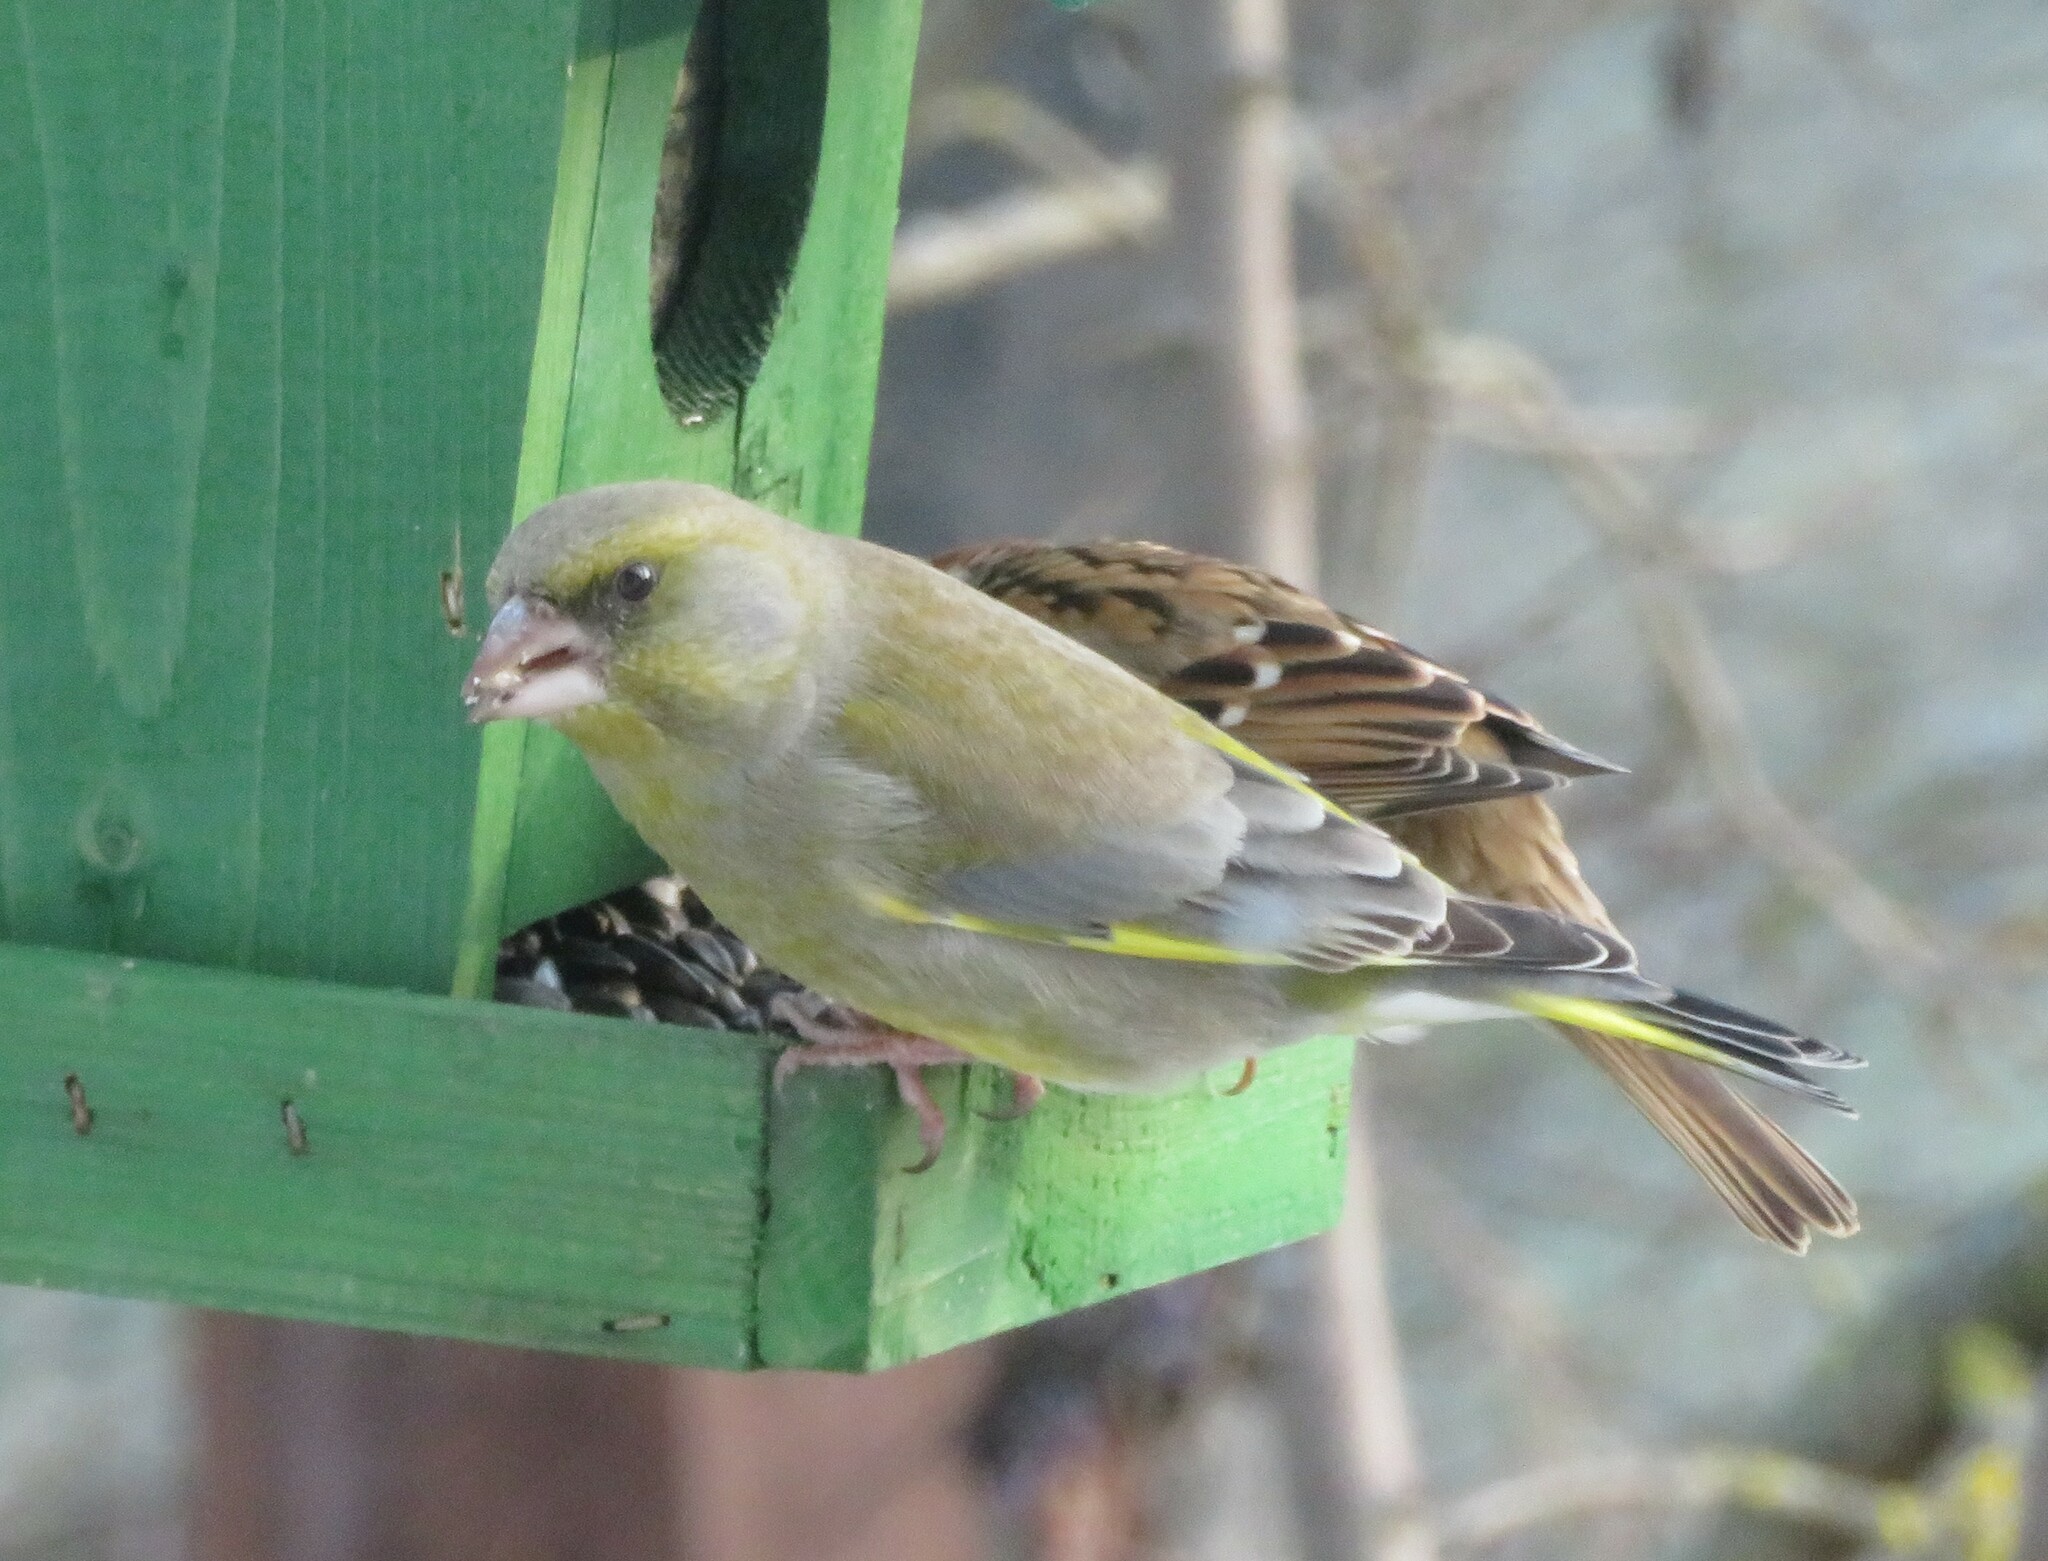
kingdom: Plantae
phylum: Tracheophyta
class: Liliopsida
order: Poales
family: Poaceae
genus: Chloris
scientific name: Chloris chloris
